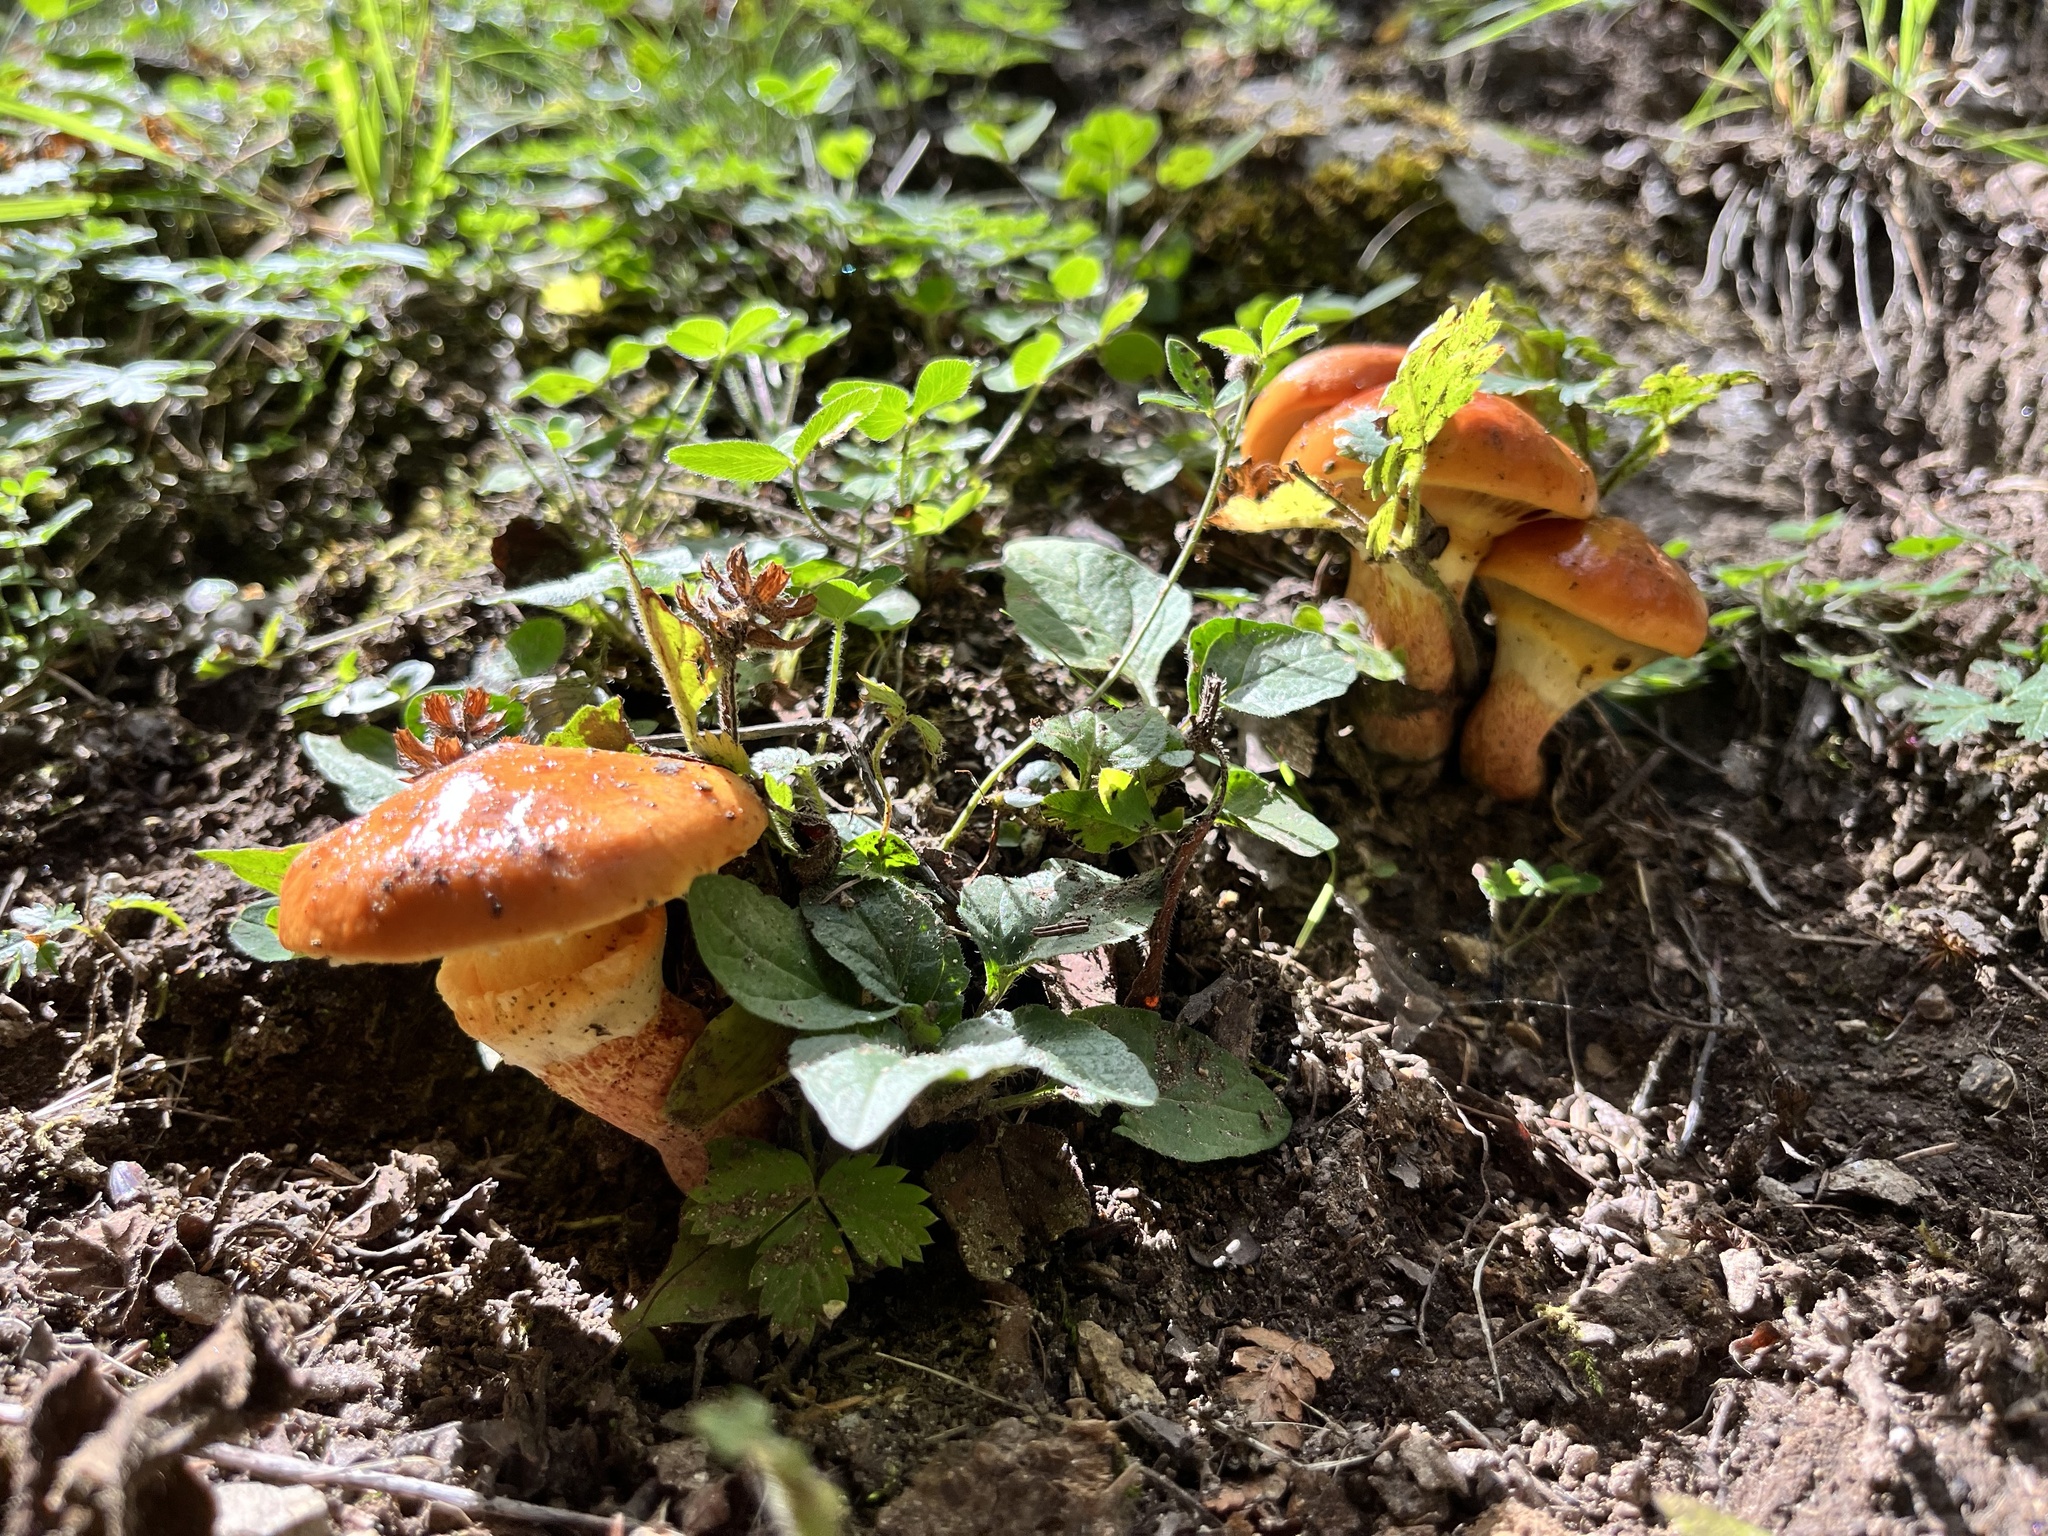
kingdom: Fungi
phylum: Basidiomycota
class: Agaricomycetes
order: Boletales
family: Suillaceae
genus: Suillus
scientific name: Suillus grevillei
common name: Larch bolete
